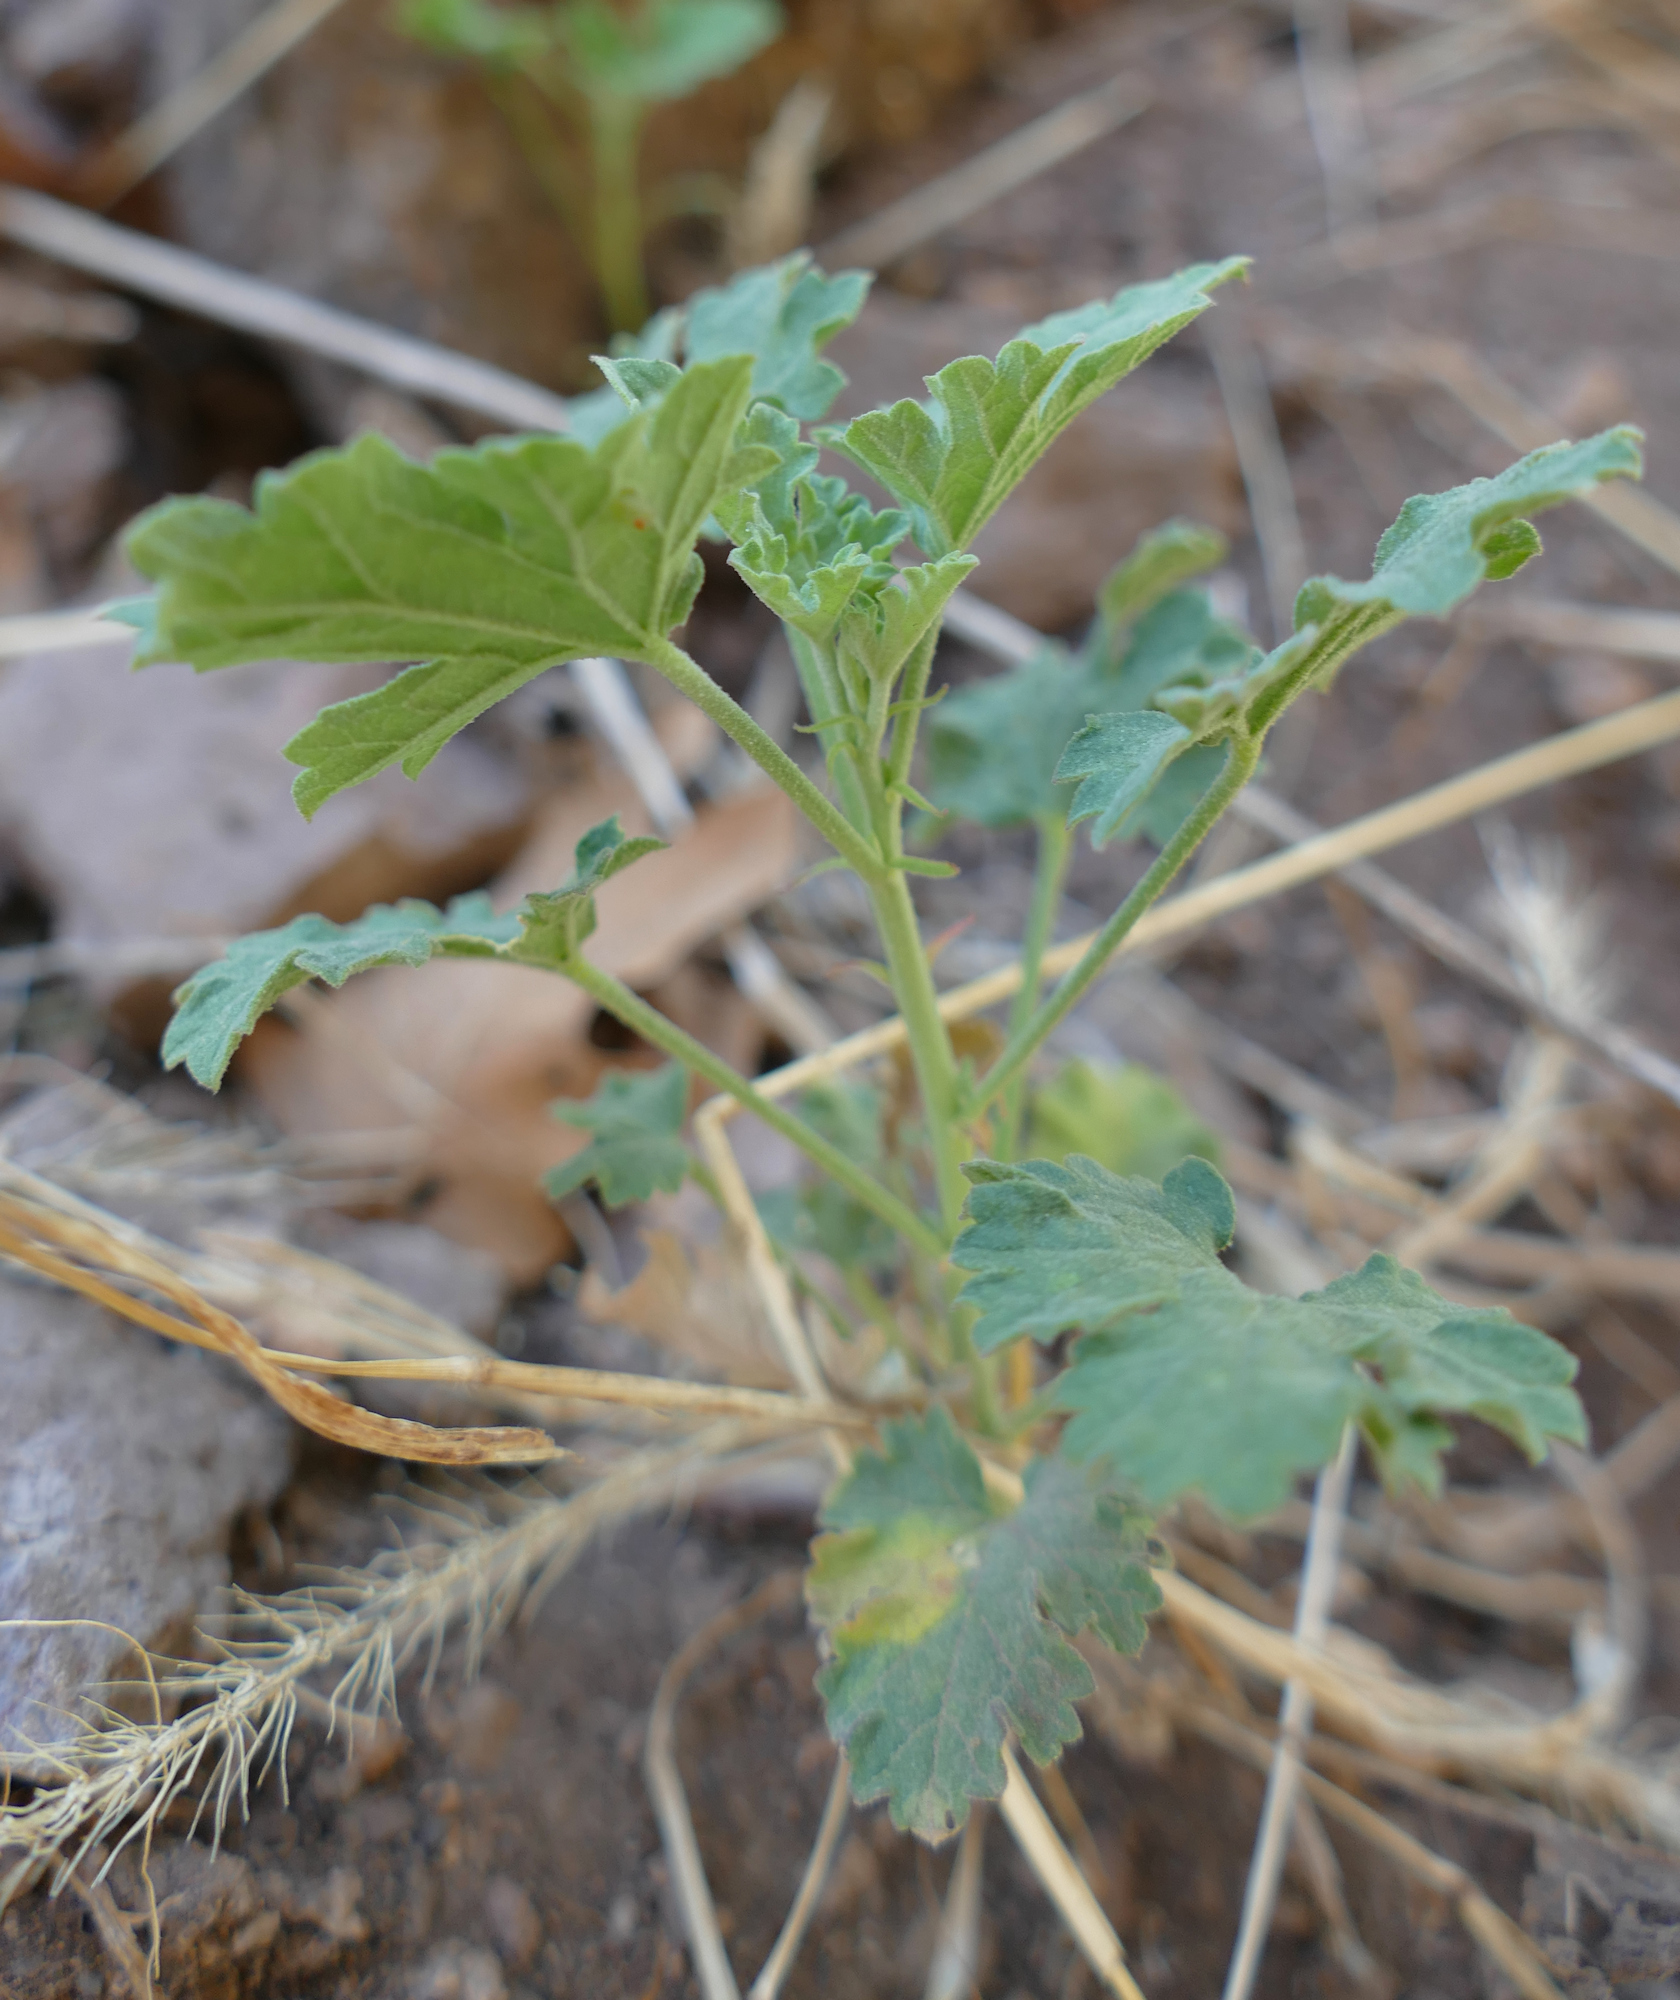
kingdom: Plantae
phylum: Tracheophyta
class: Magnoliopsida
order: Malvales
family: Malvaceae
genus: Sphaeralcea
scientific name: Sphaeralcea fendleri
